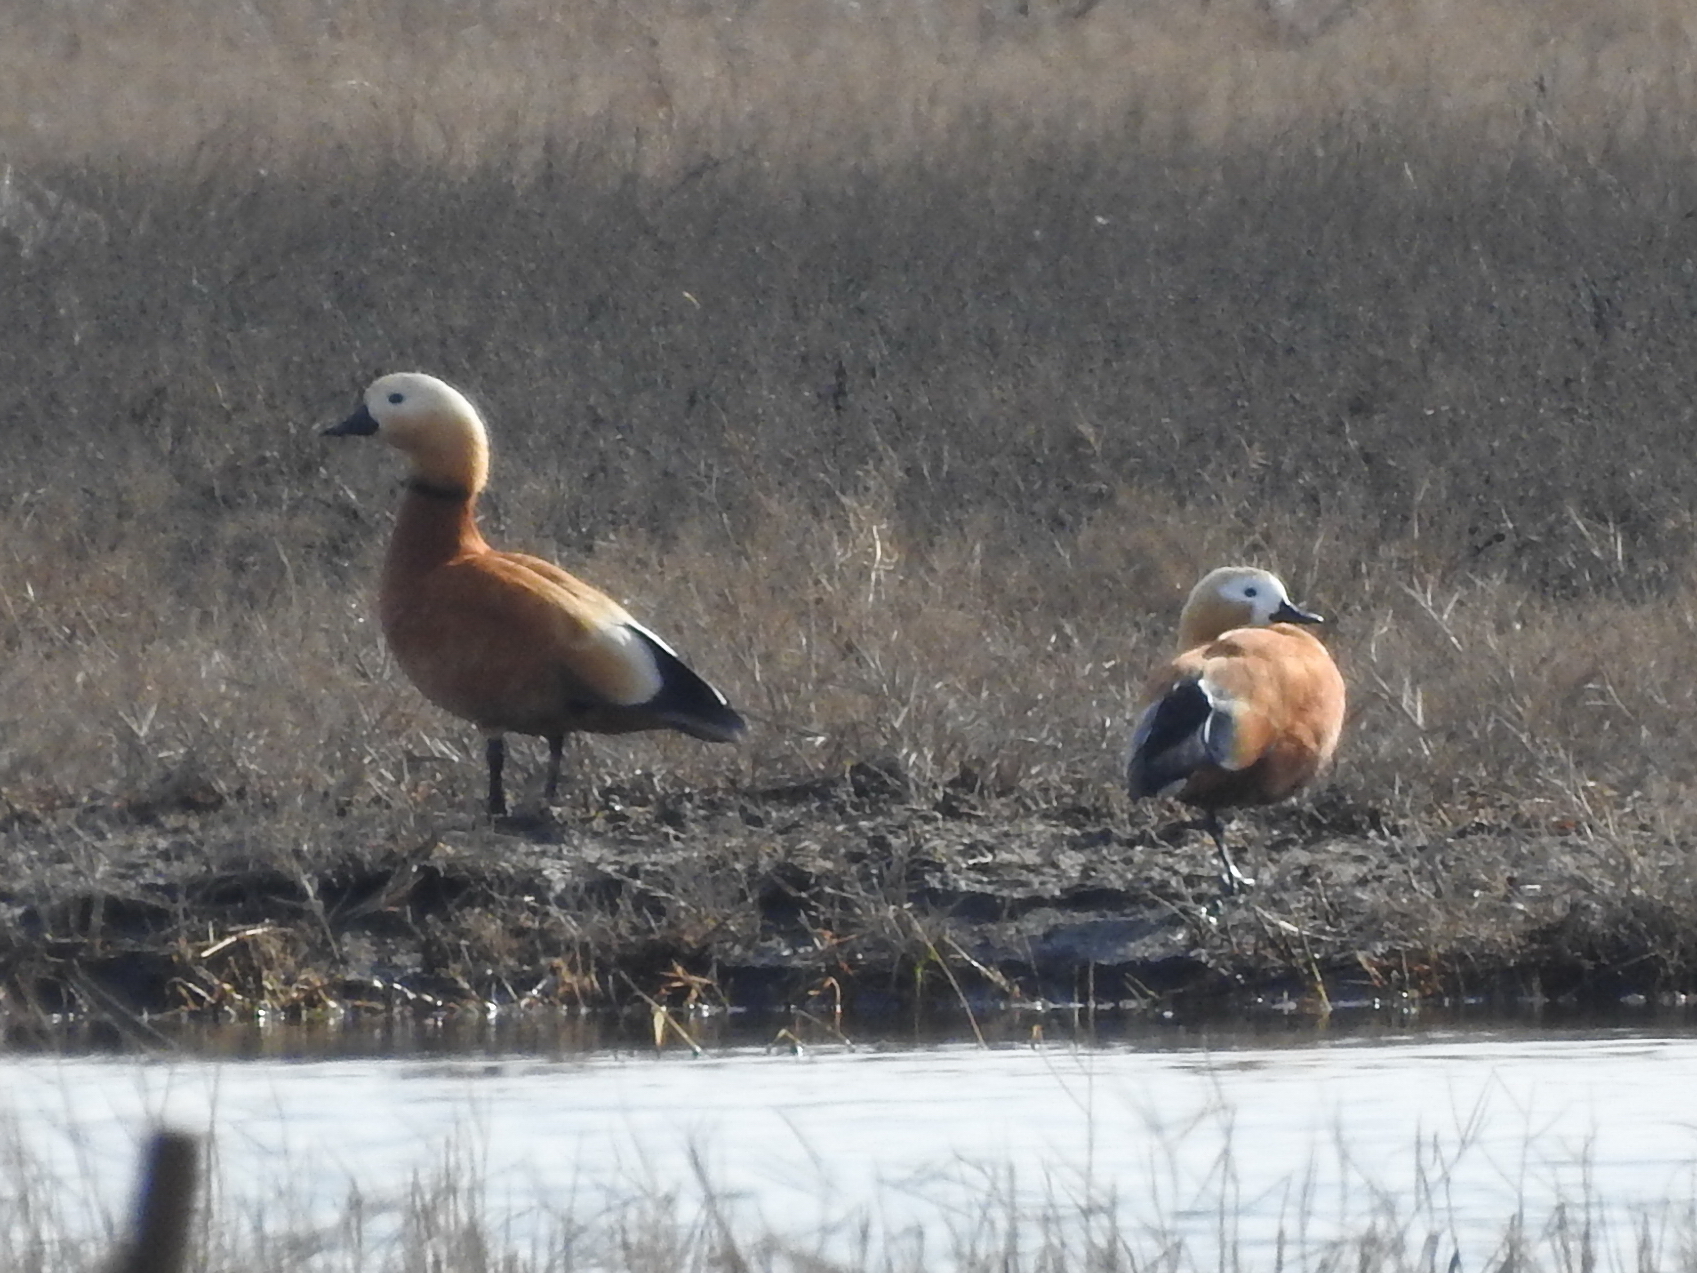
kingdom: Animalia
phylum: Chordata
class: Aves
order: Anseriformes
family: Anatidae
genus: Tadorna
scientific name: Tadorna ferruginea
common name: Ruddy shelduck
